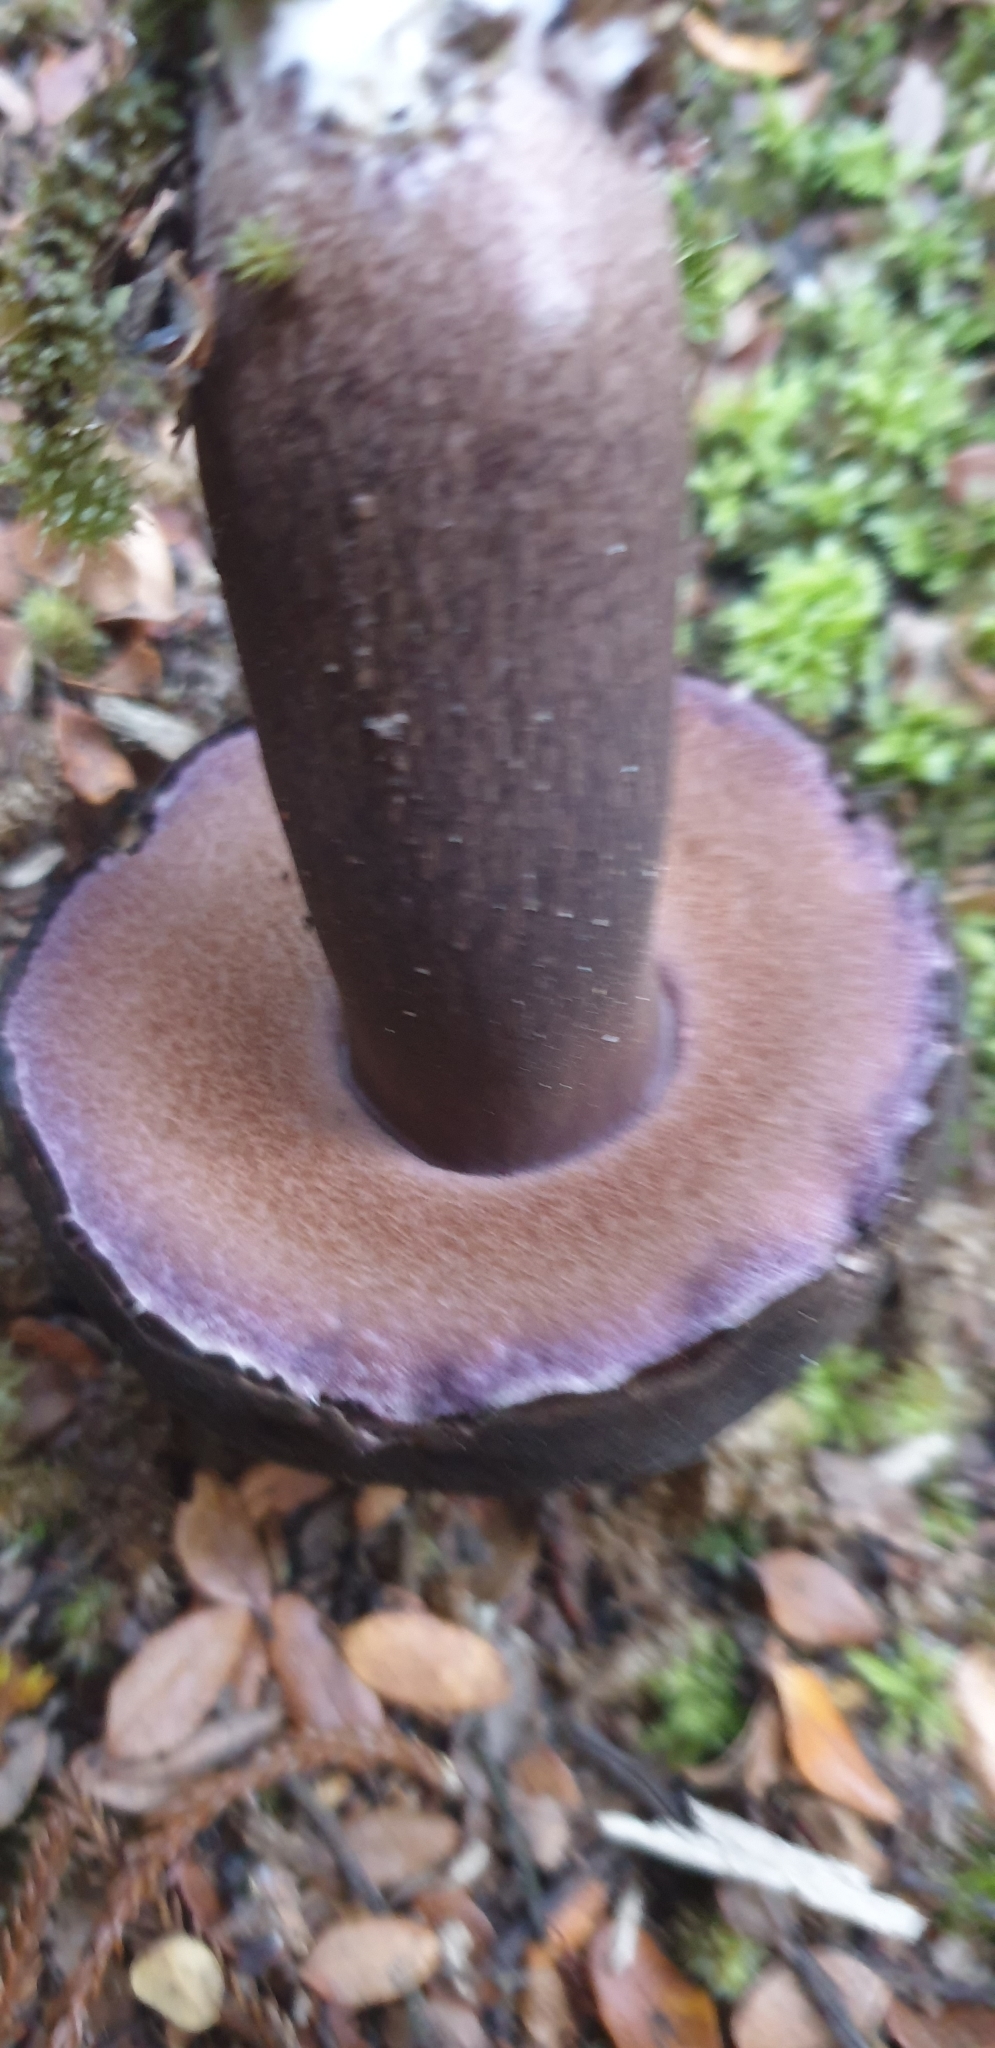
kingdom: Fungi
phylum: Basidiomycota
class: Agaricomycetes
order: Boletales
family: Boletaceae
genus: Porphyrellus
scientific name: Porphyrellus formosus
